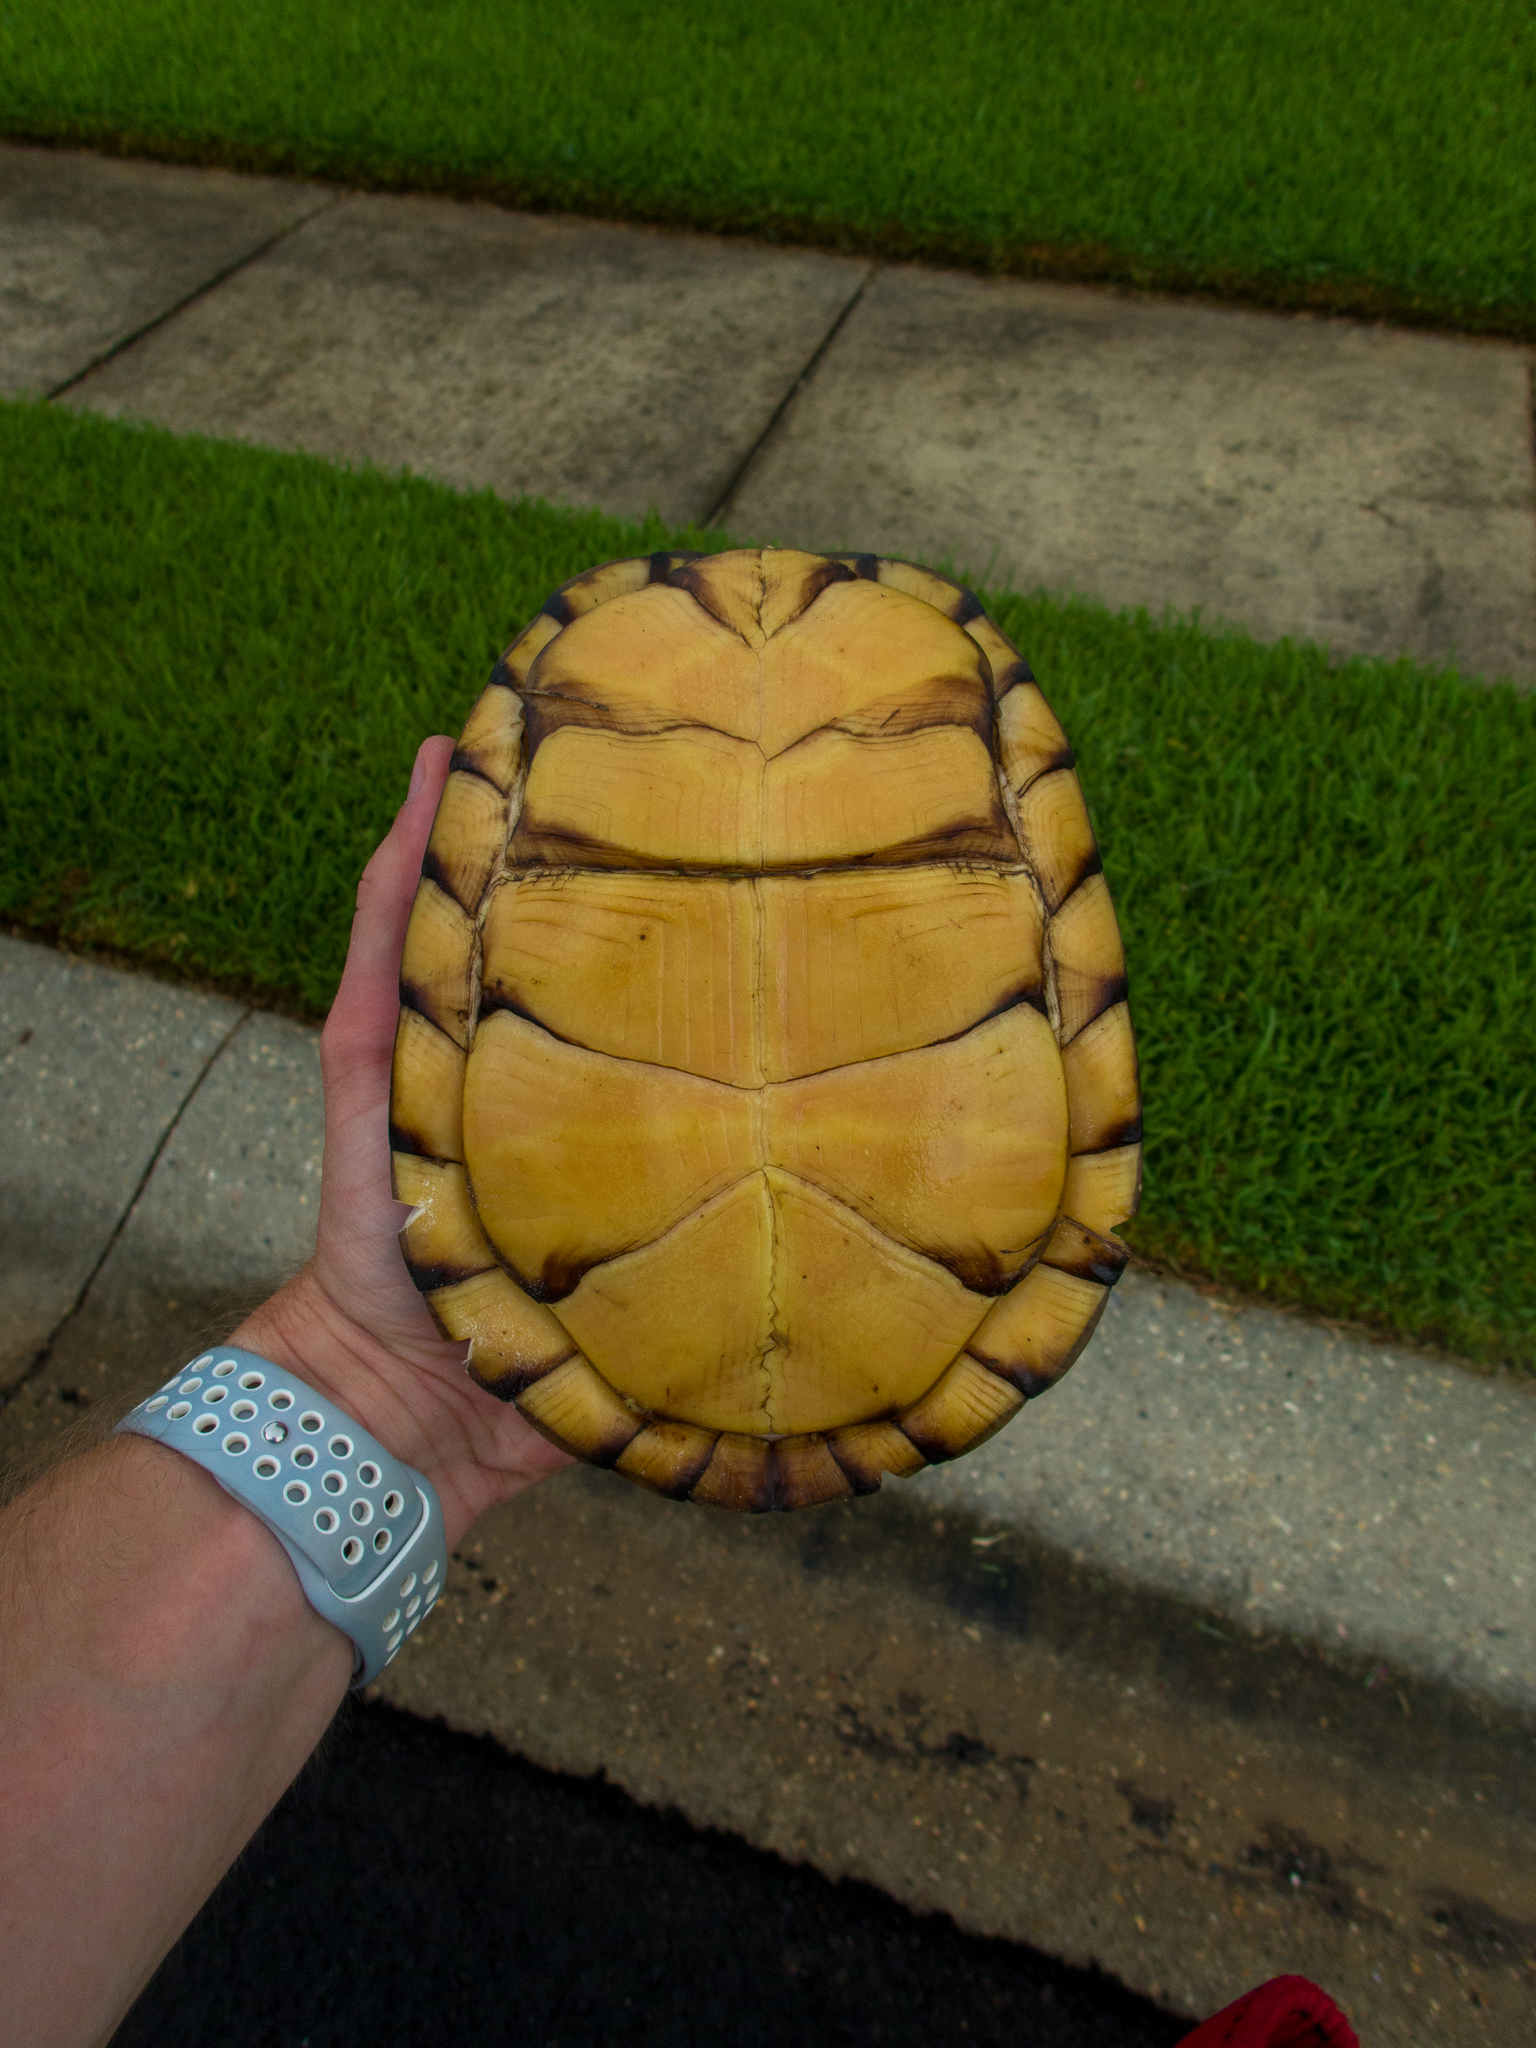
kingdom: Animalia
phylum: Chordata
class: Testudines
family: Emydidae
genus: Terrapene
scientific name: Terrapene carolina
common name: Common box turtle
